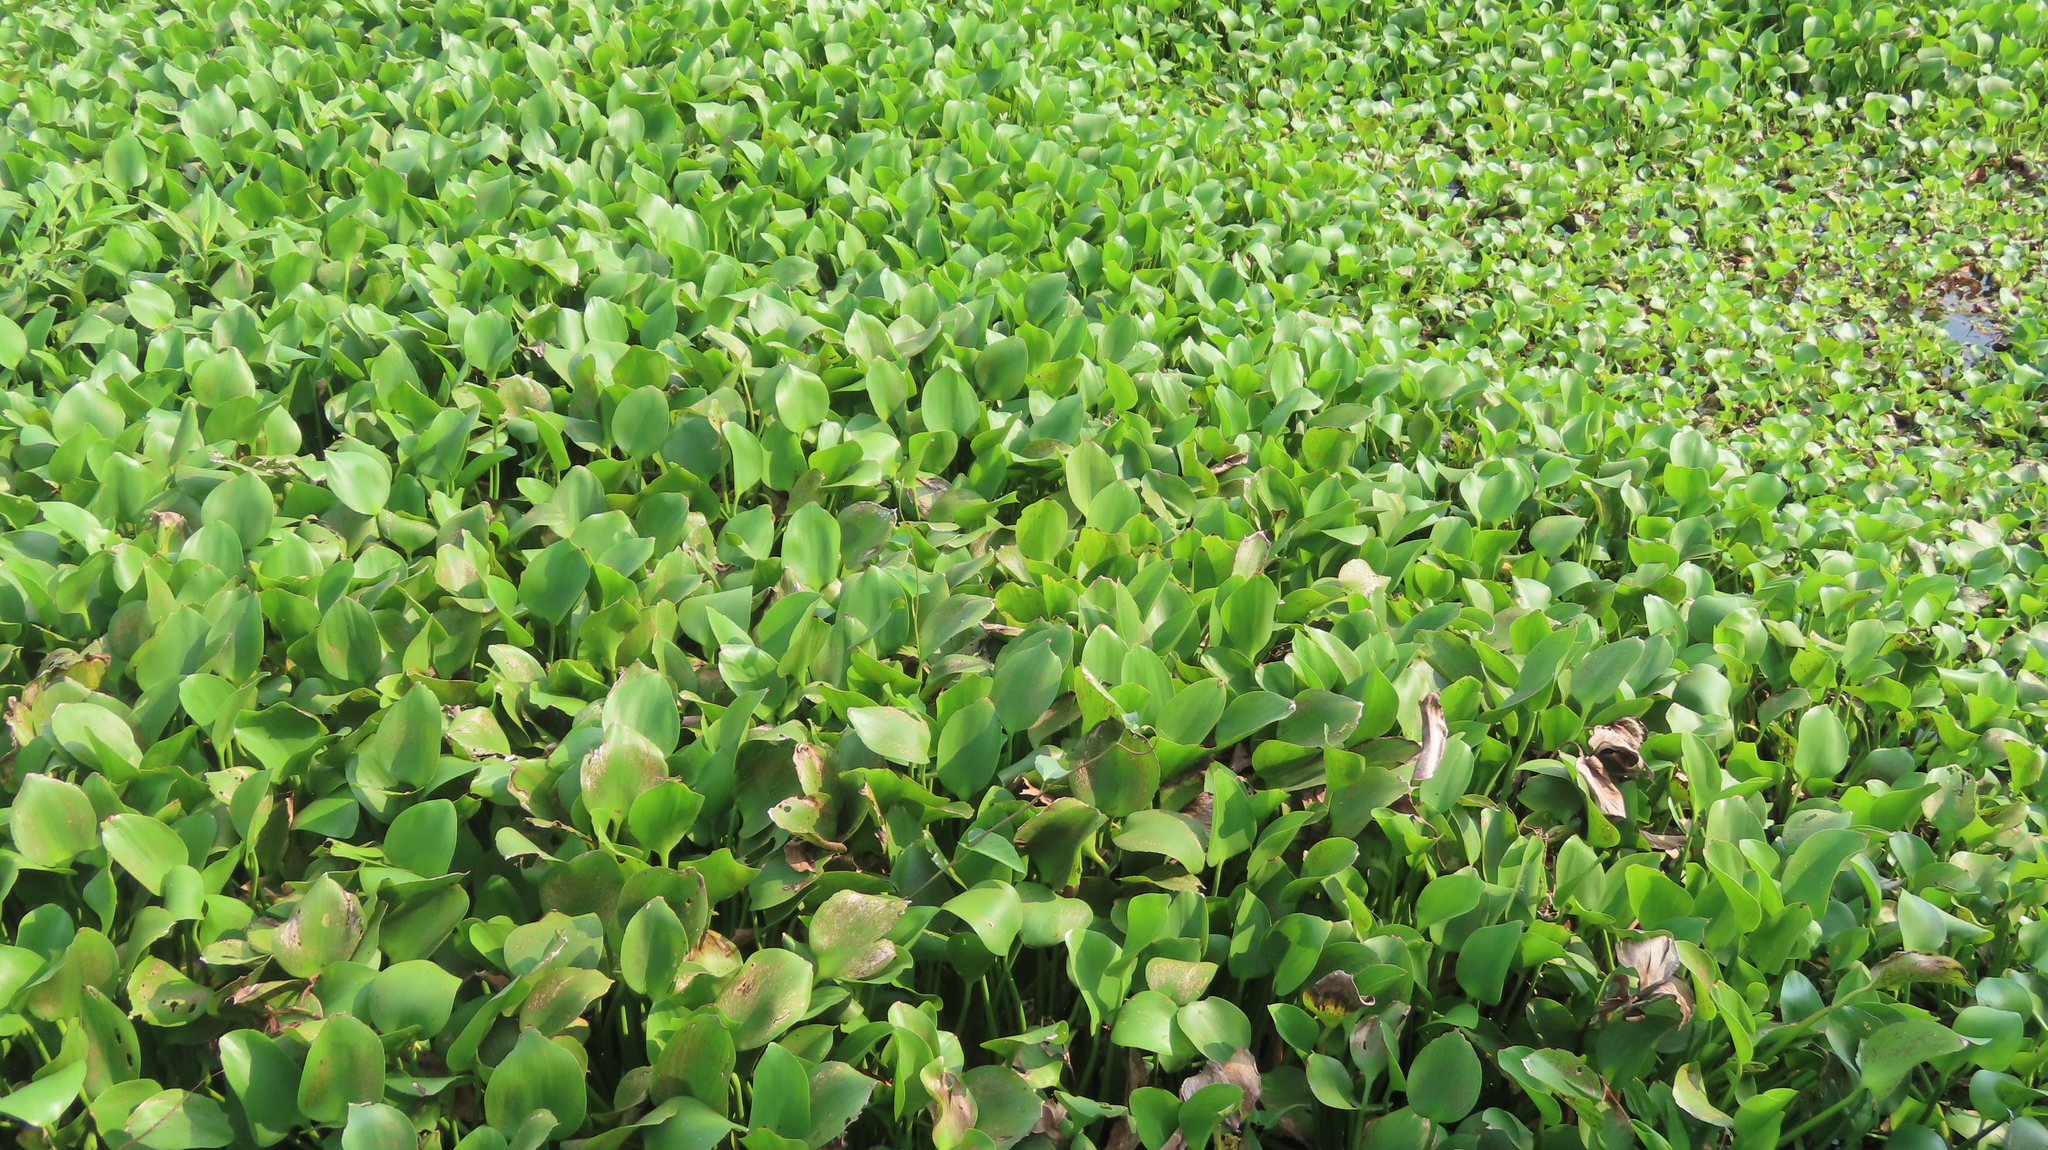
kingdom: Plantae
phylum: Tracheophyta
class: Liliopsida
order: Commelinales
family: Pontederiaceae
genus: Pontederia
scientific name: Pontederia crassipes
